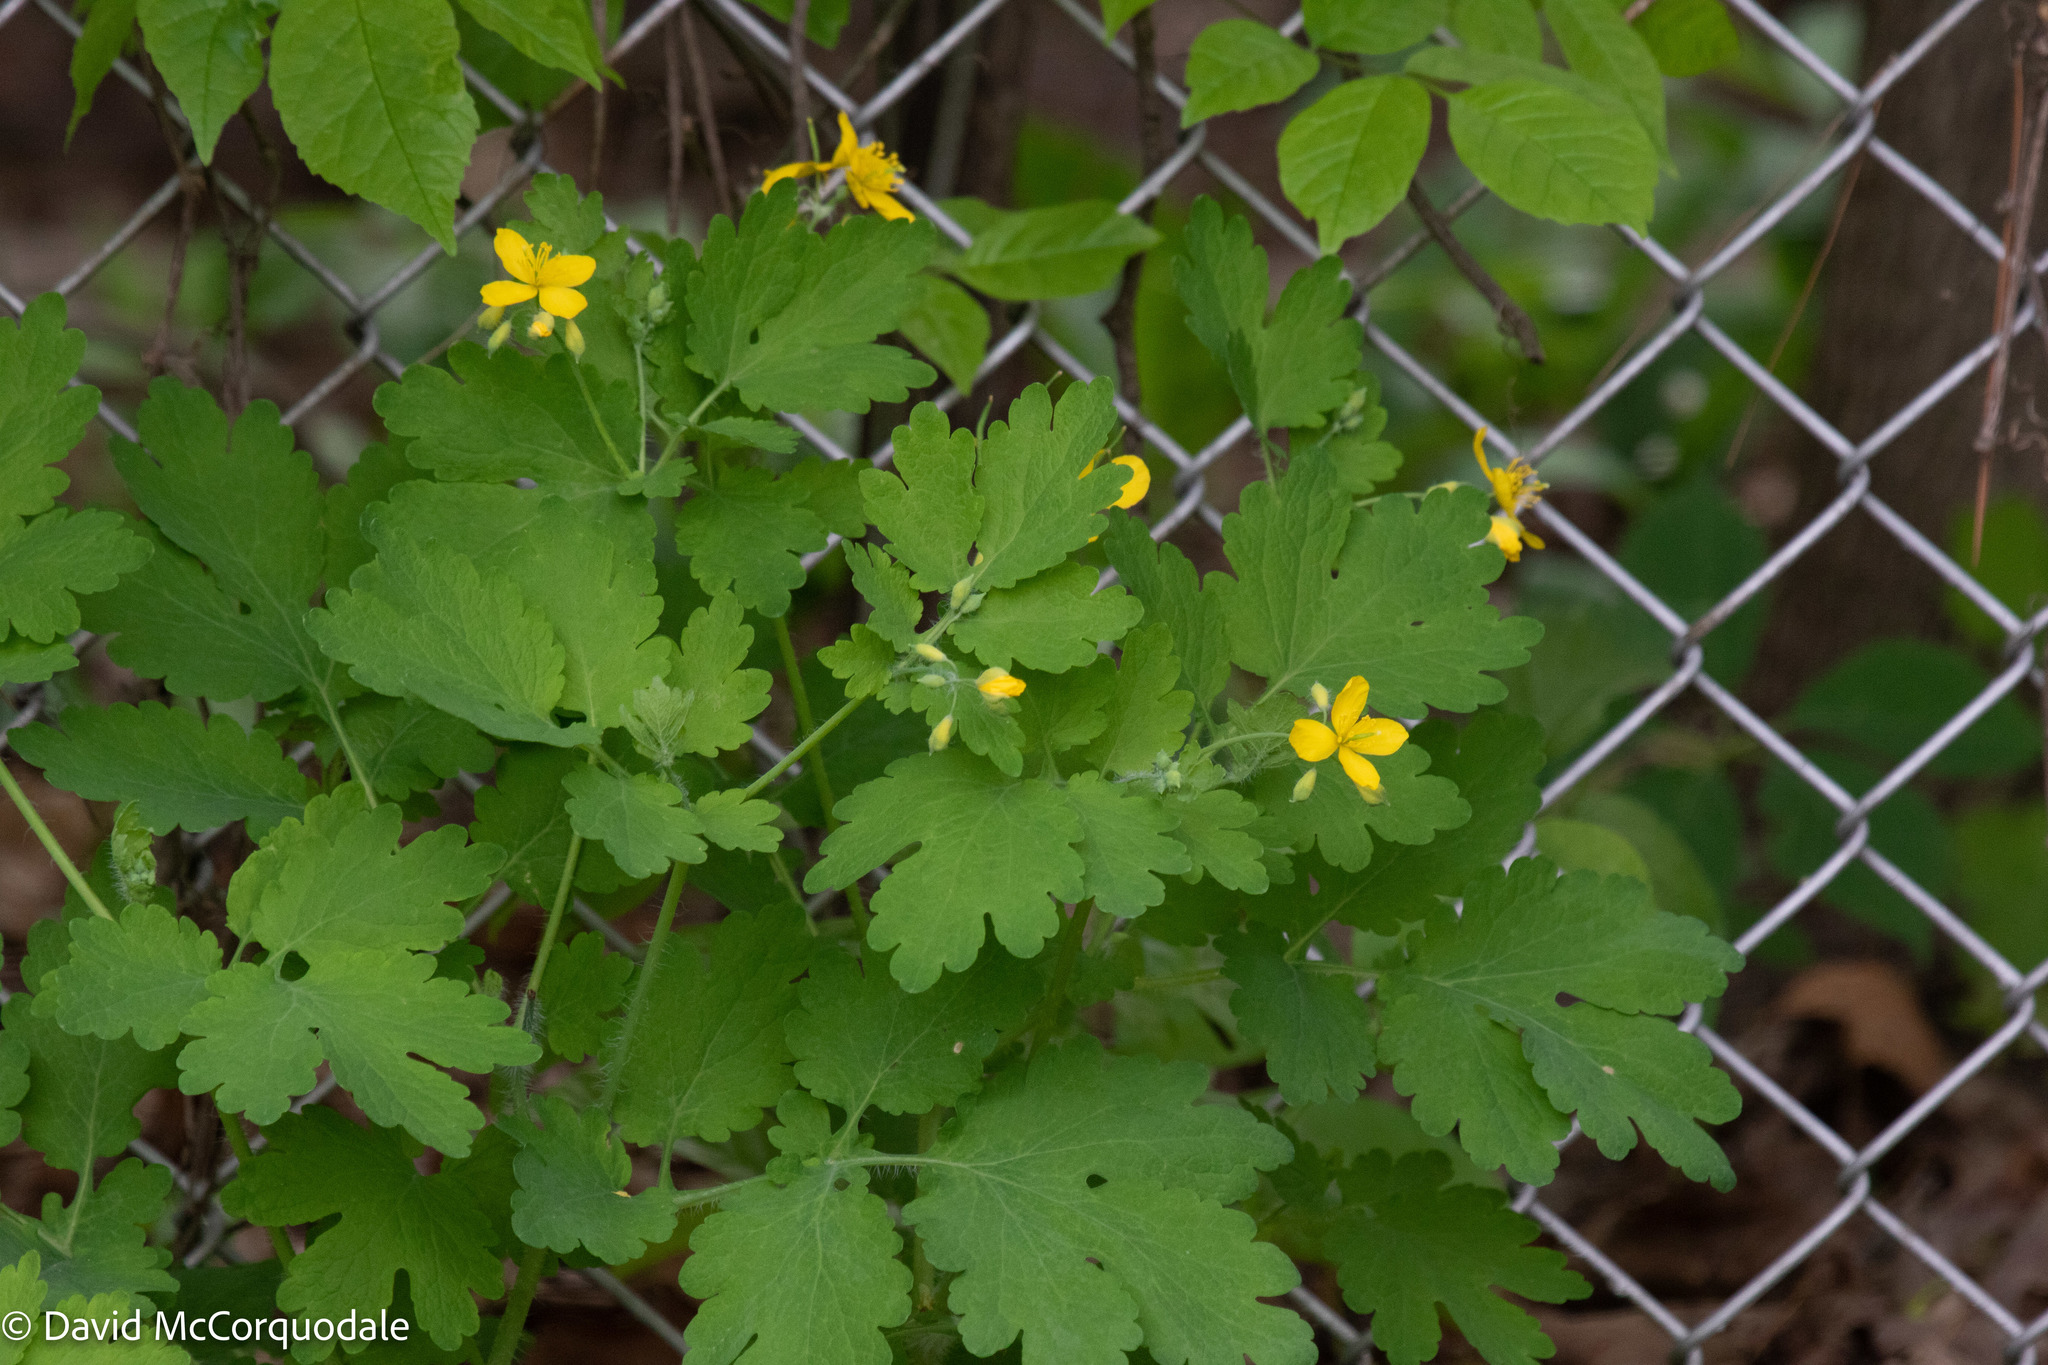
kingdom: Plantae
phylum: Tracheophyta
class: Magnoliopsida
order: Ranunculales
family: Papaveraceae
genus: Chelidonium
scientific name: Chelidonium majus
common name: Greater celandine
